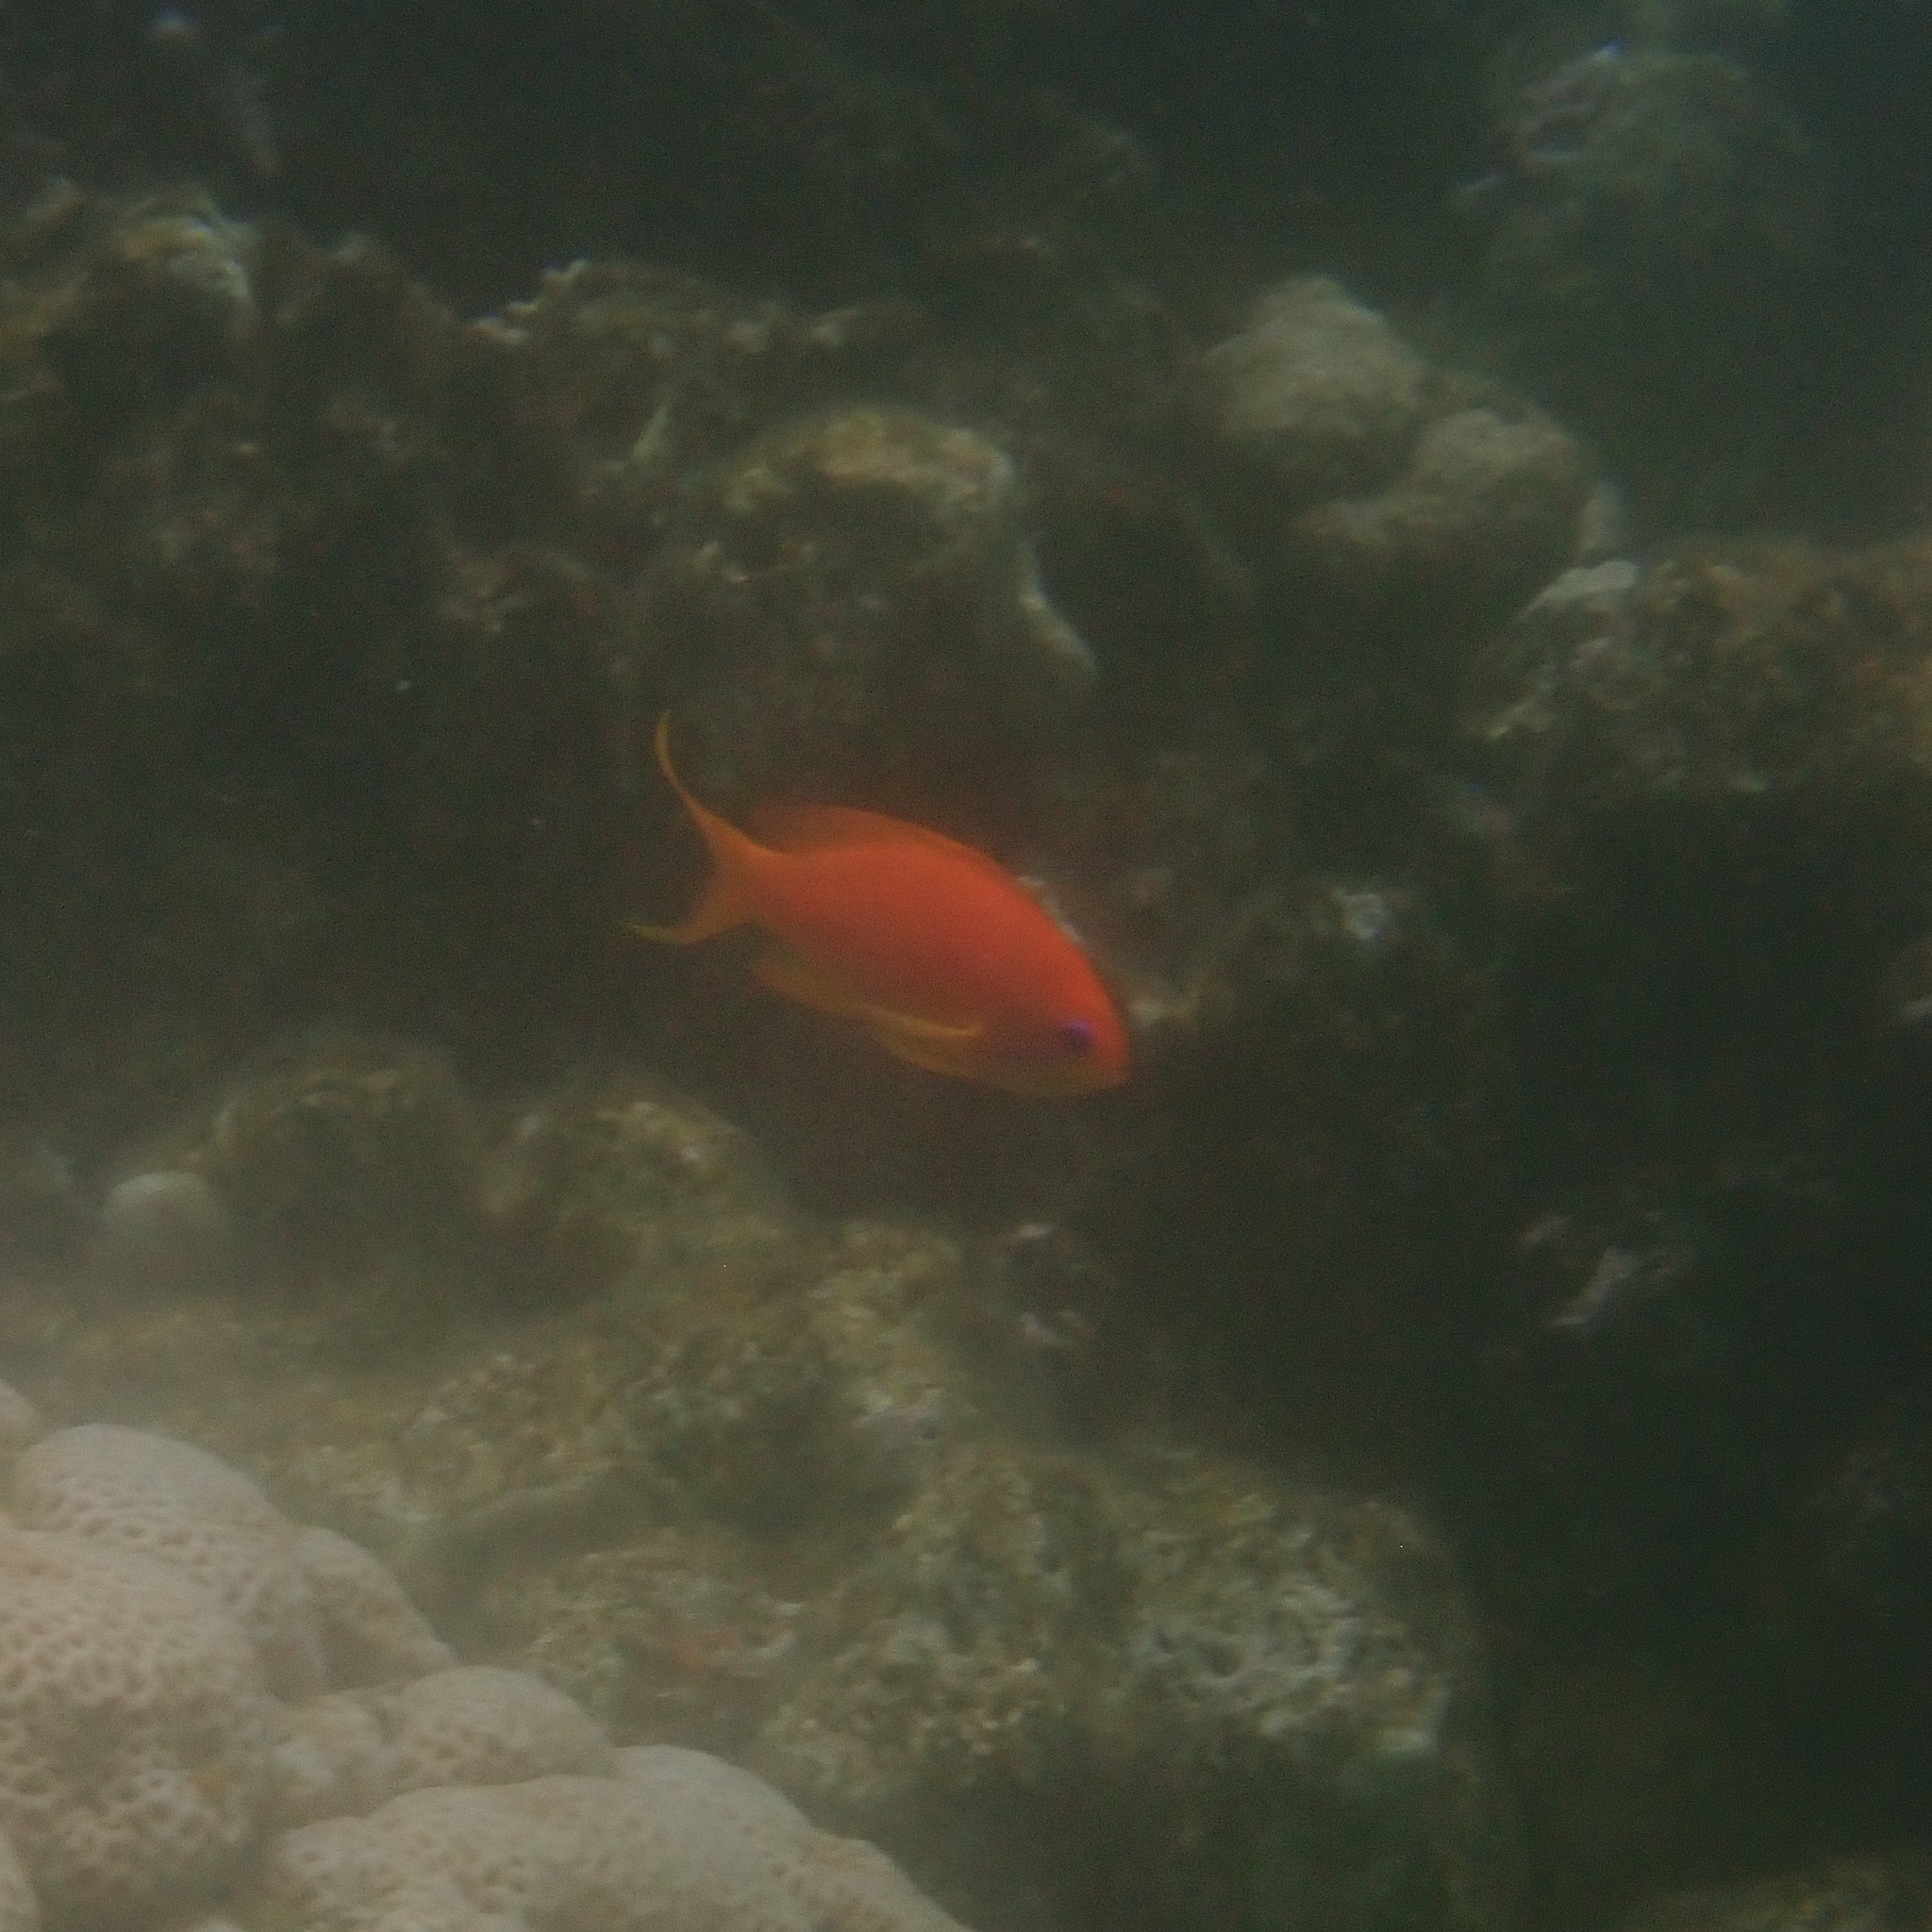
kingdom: Animalia
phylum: Chordata
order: Perciformes
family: Serranidae
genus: Pseudanthias
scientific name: Pseudanthias squamipinnis
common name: Scalefin anthias
